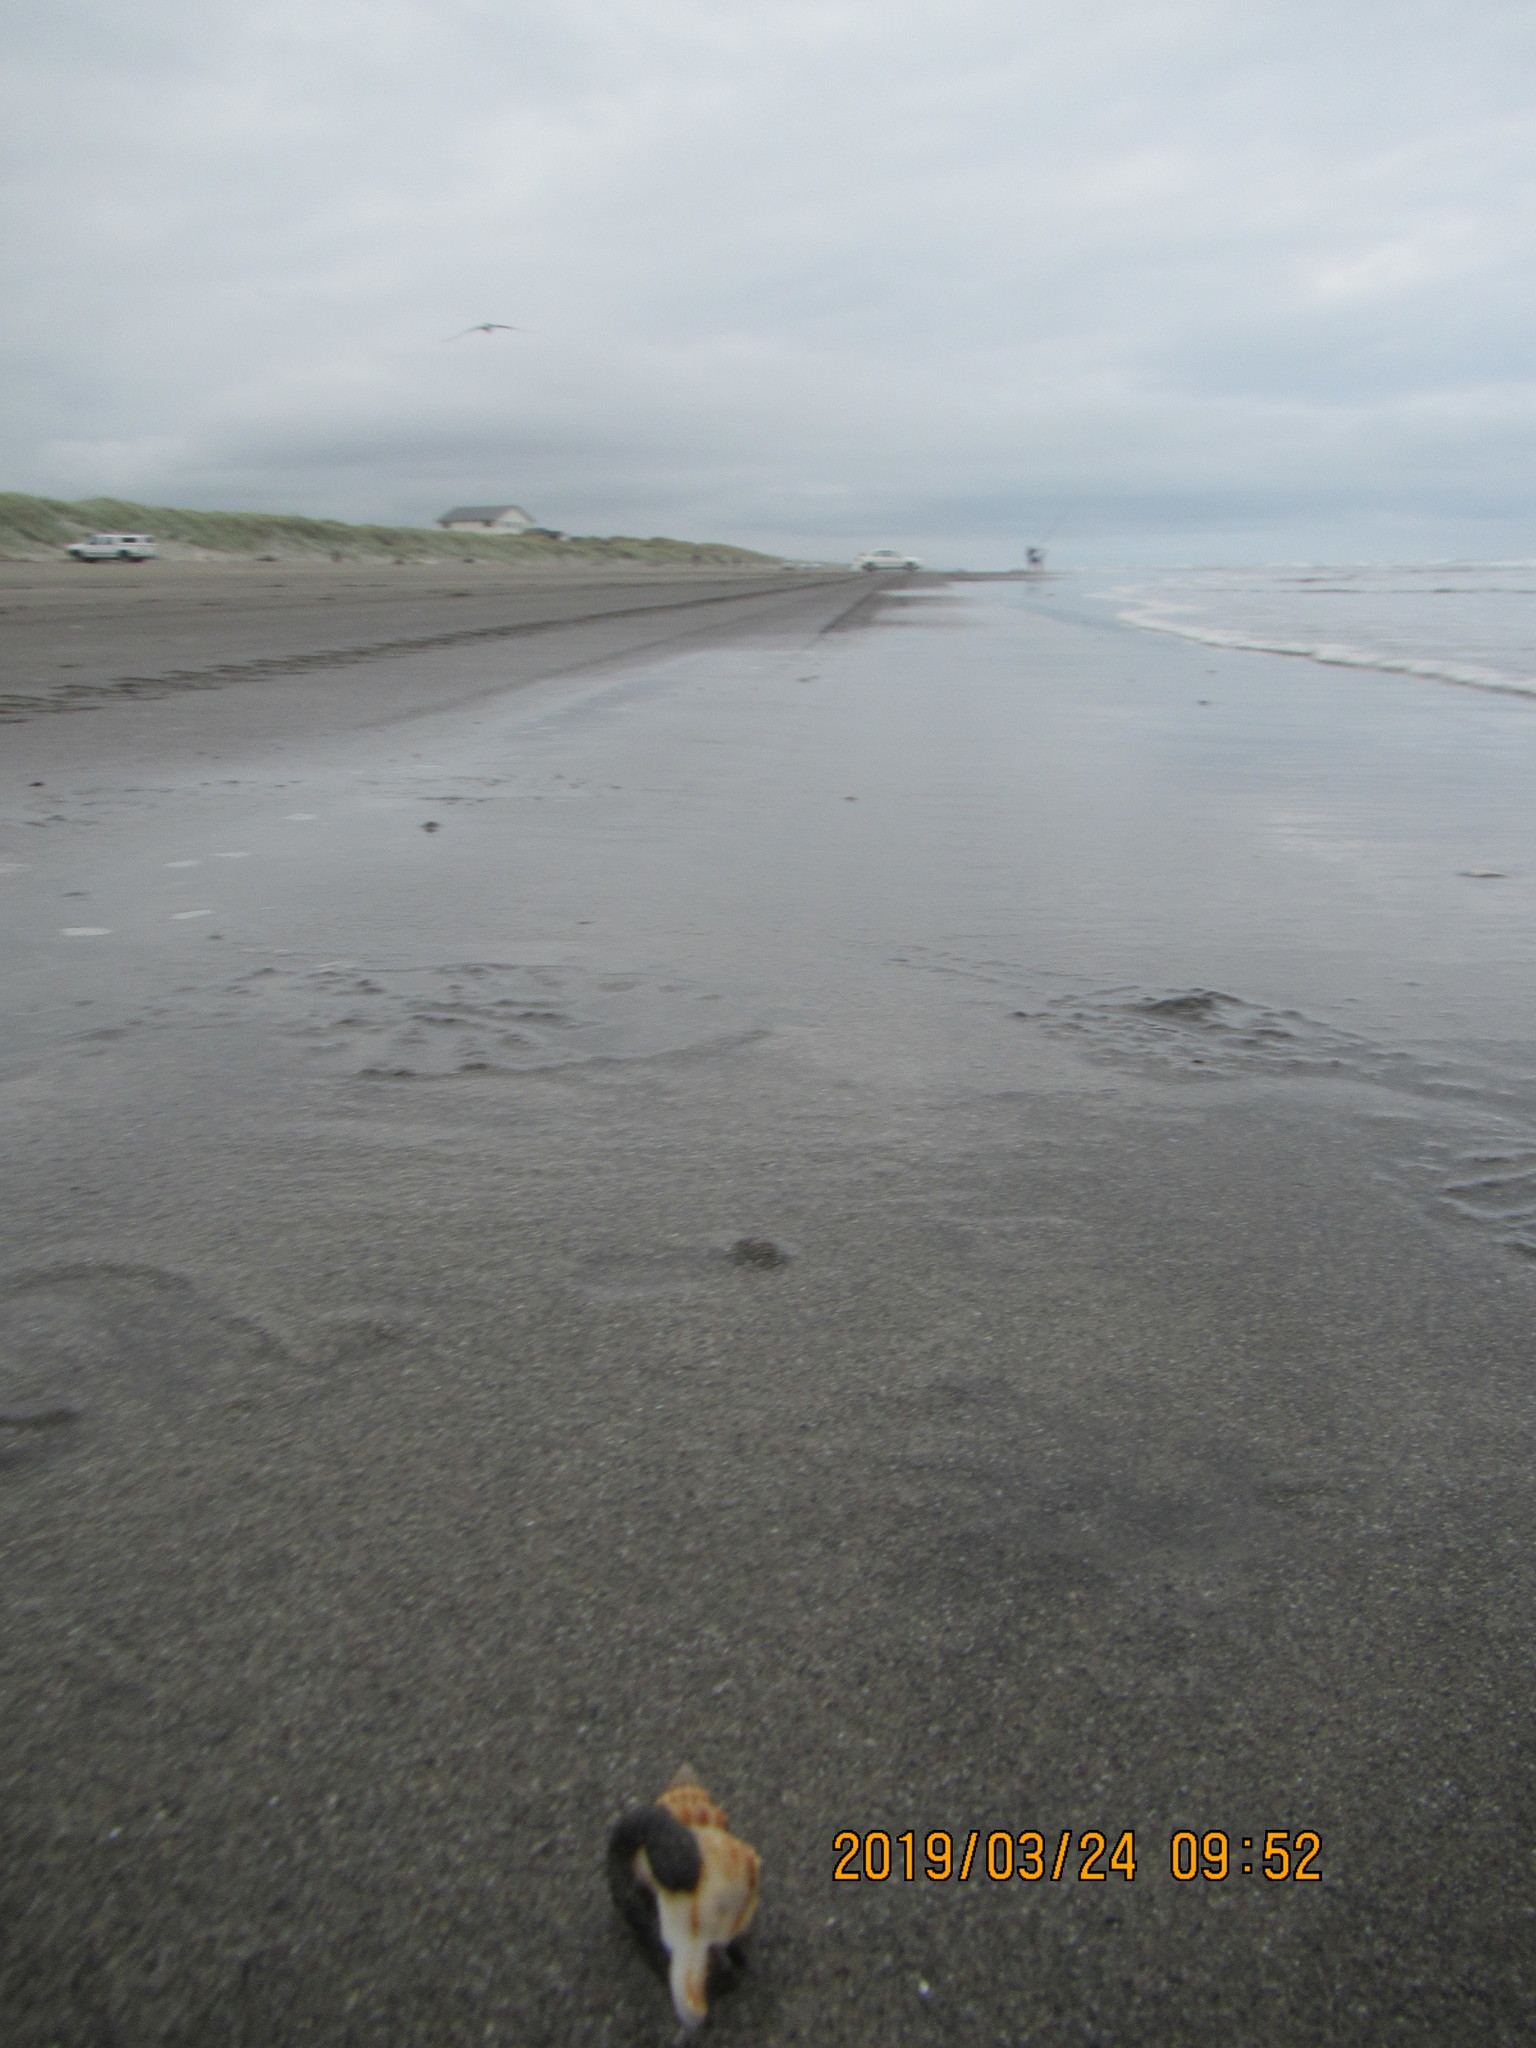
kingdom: Animalia
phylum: Mollusca
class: Gastropoda
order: Neogastropoda
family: Prosiphonidae
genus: Austrofusus
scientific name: Austrofusus glans
